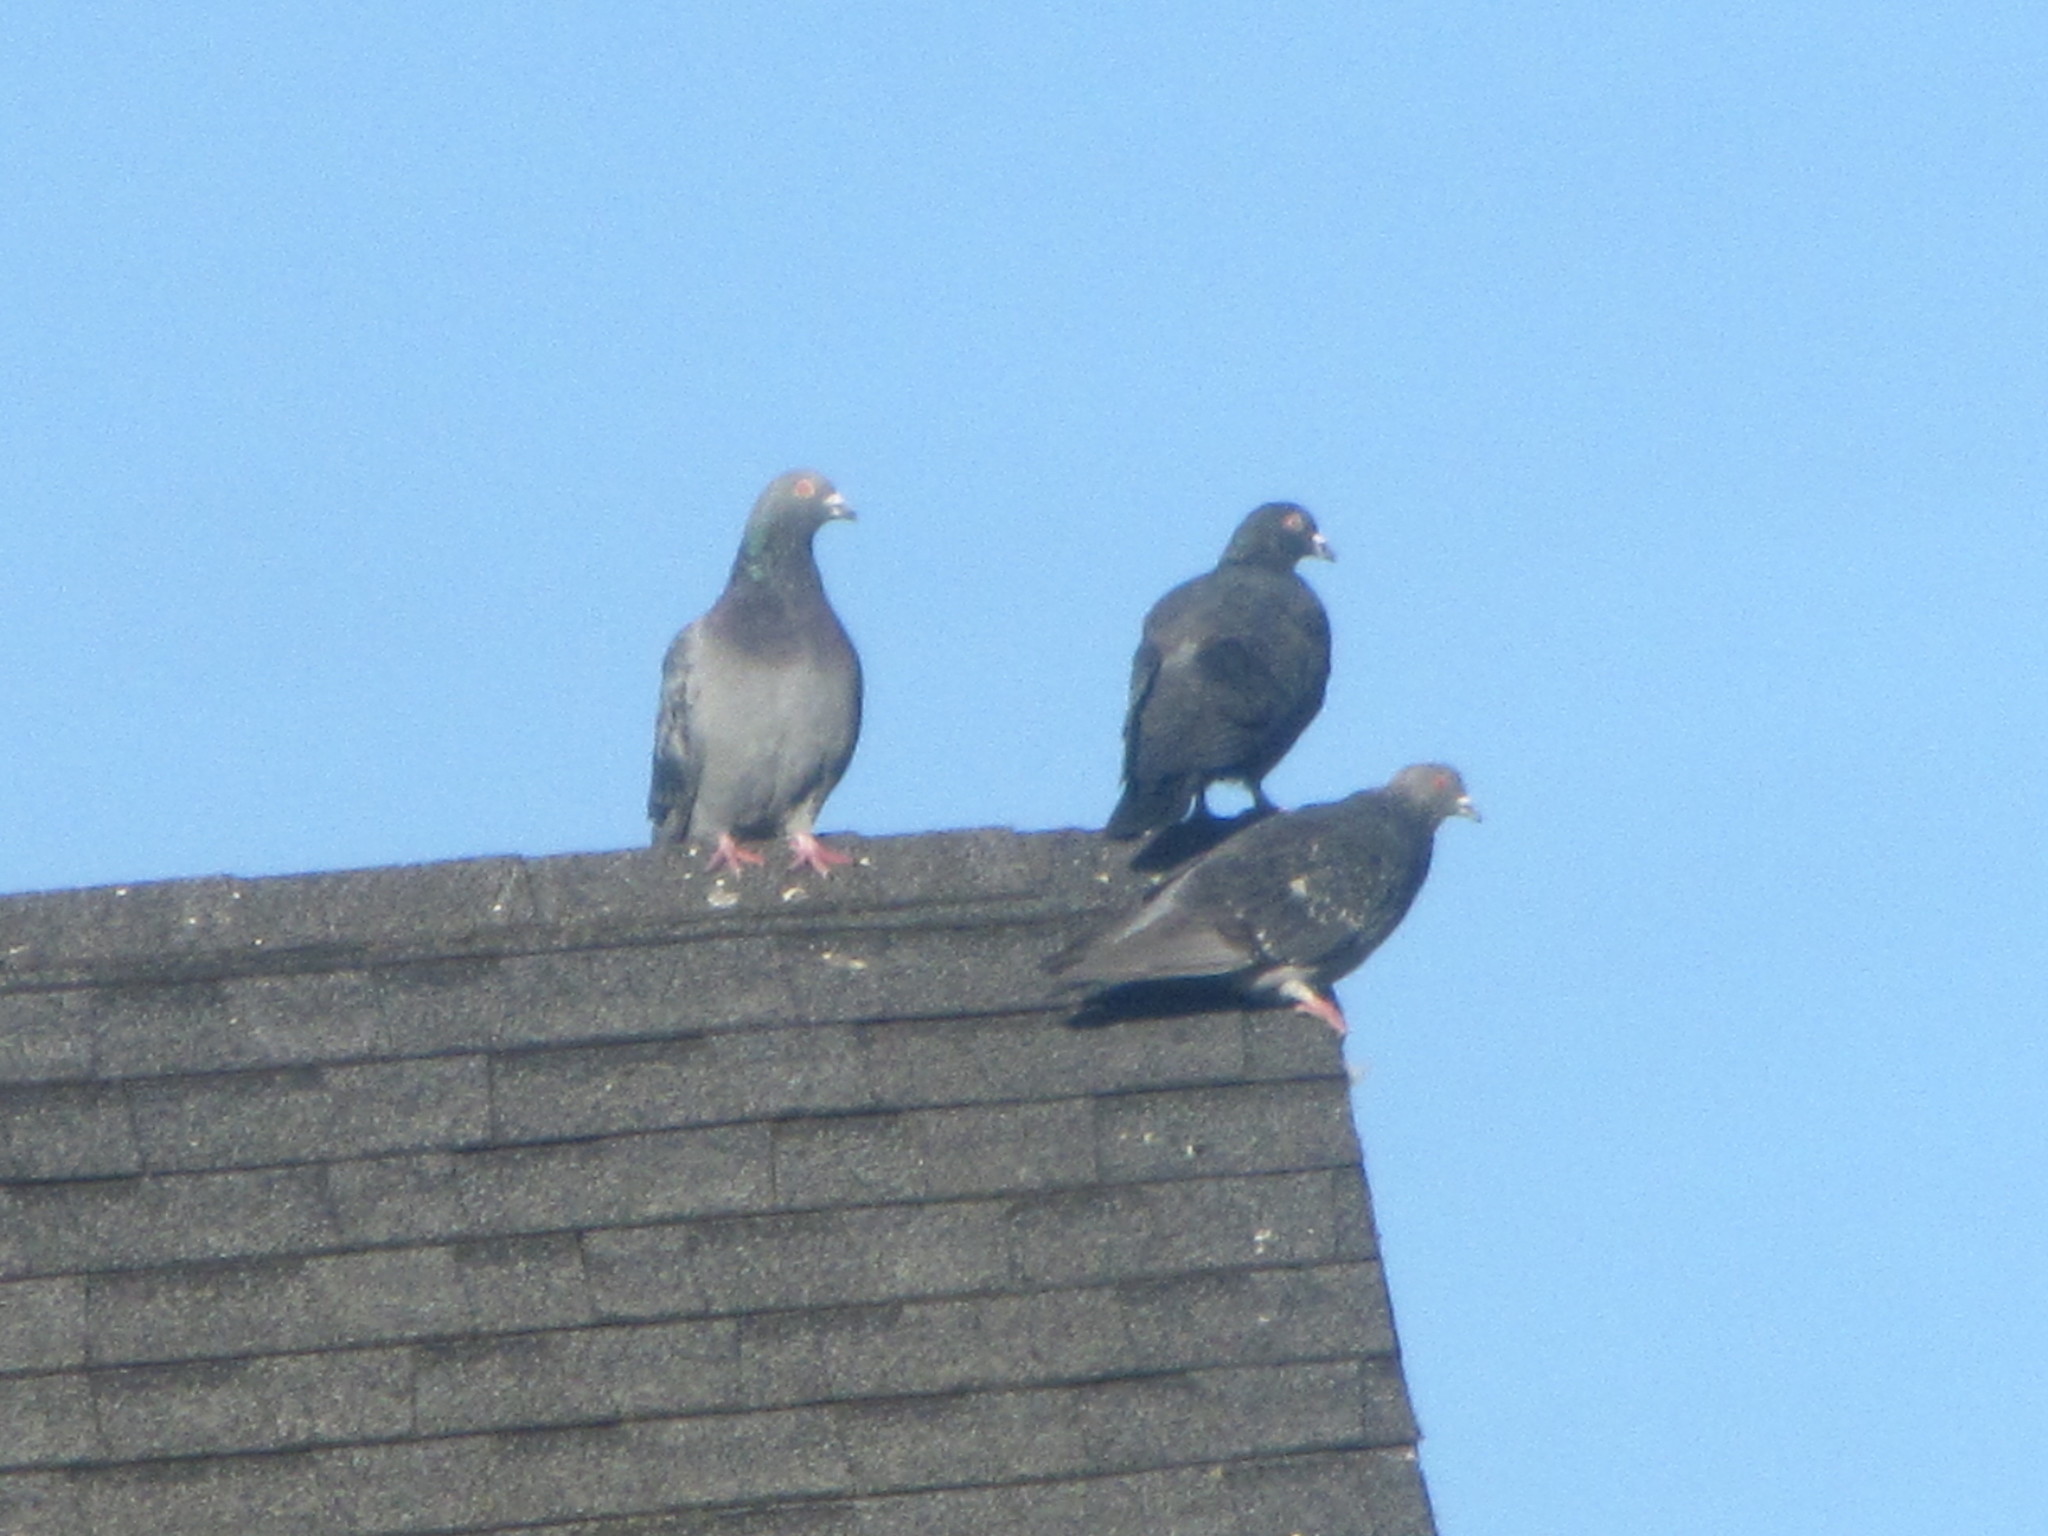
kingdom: Animalia
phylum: Chordata
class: Aves
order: Columbiformes
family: Columbidae
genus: Columba
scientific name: Columba livia
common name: Rock pigeon
